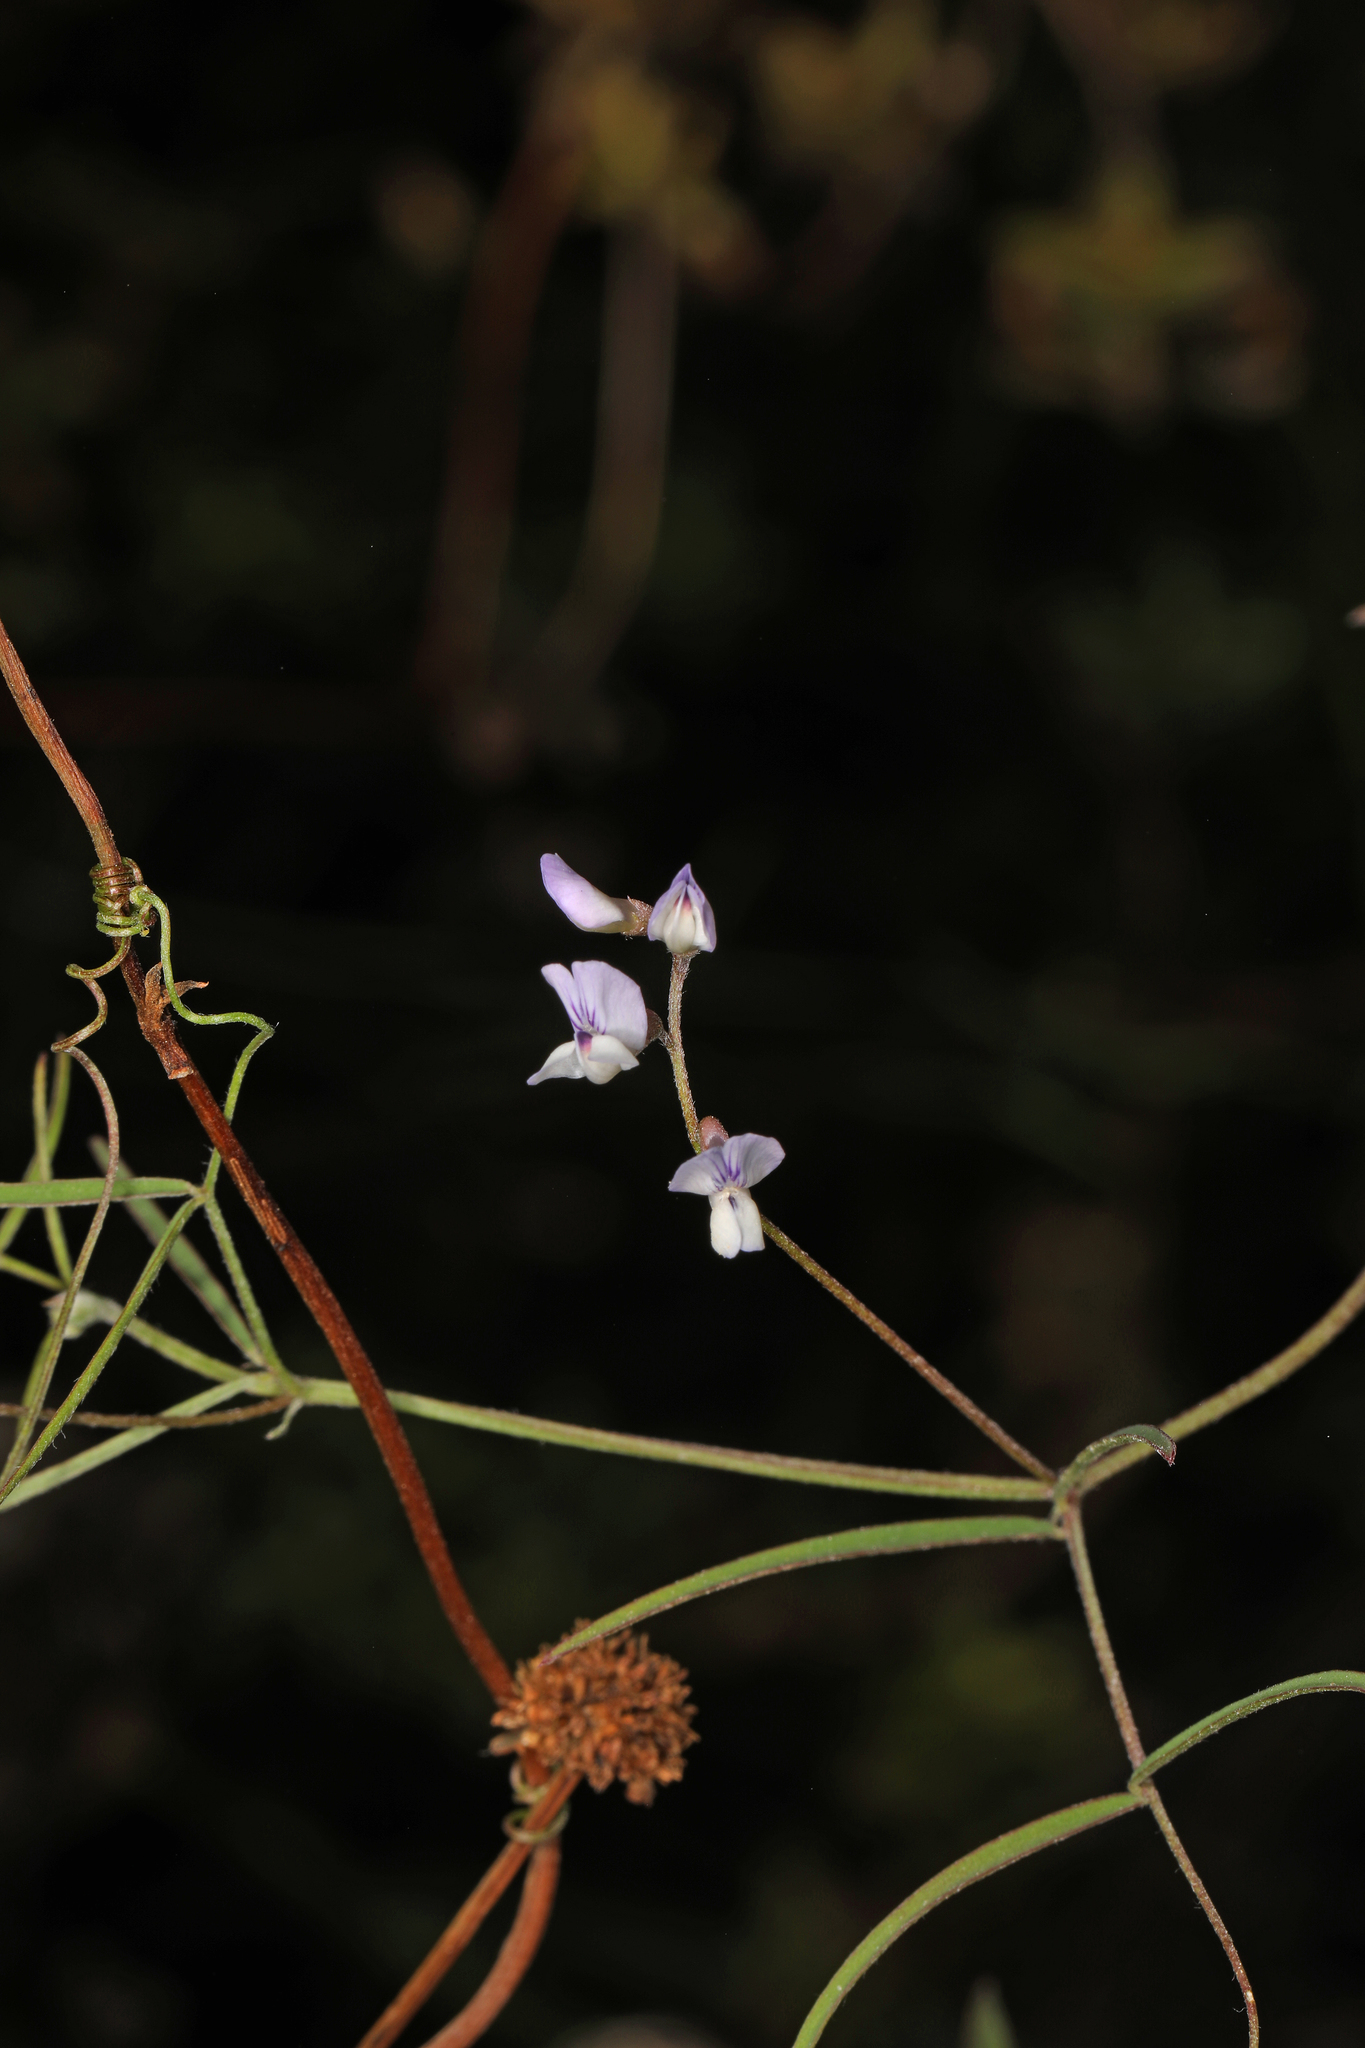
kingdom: Plantae
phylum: Tracheophyta
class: Magnoliopsida
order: Fabales
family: Fabaceae
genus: Vicia
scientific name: Vicia acutifolia
